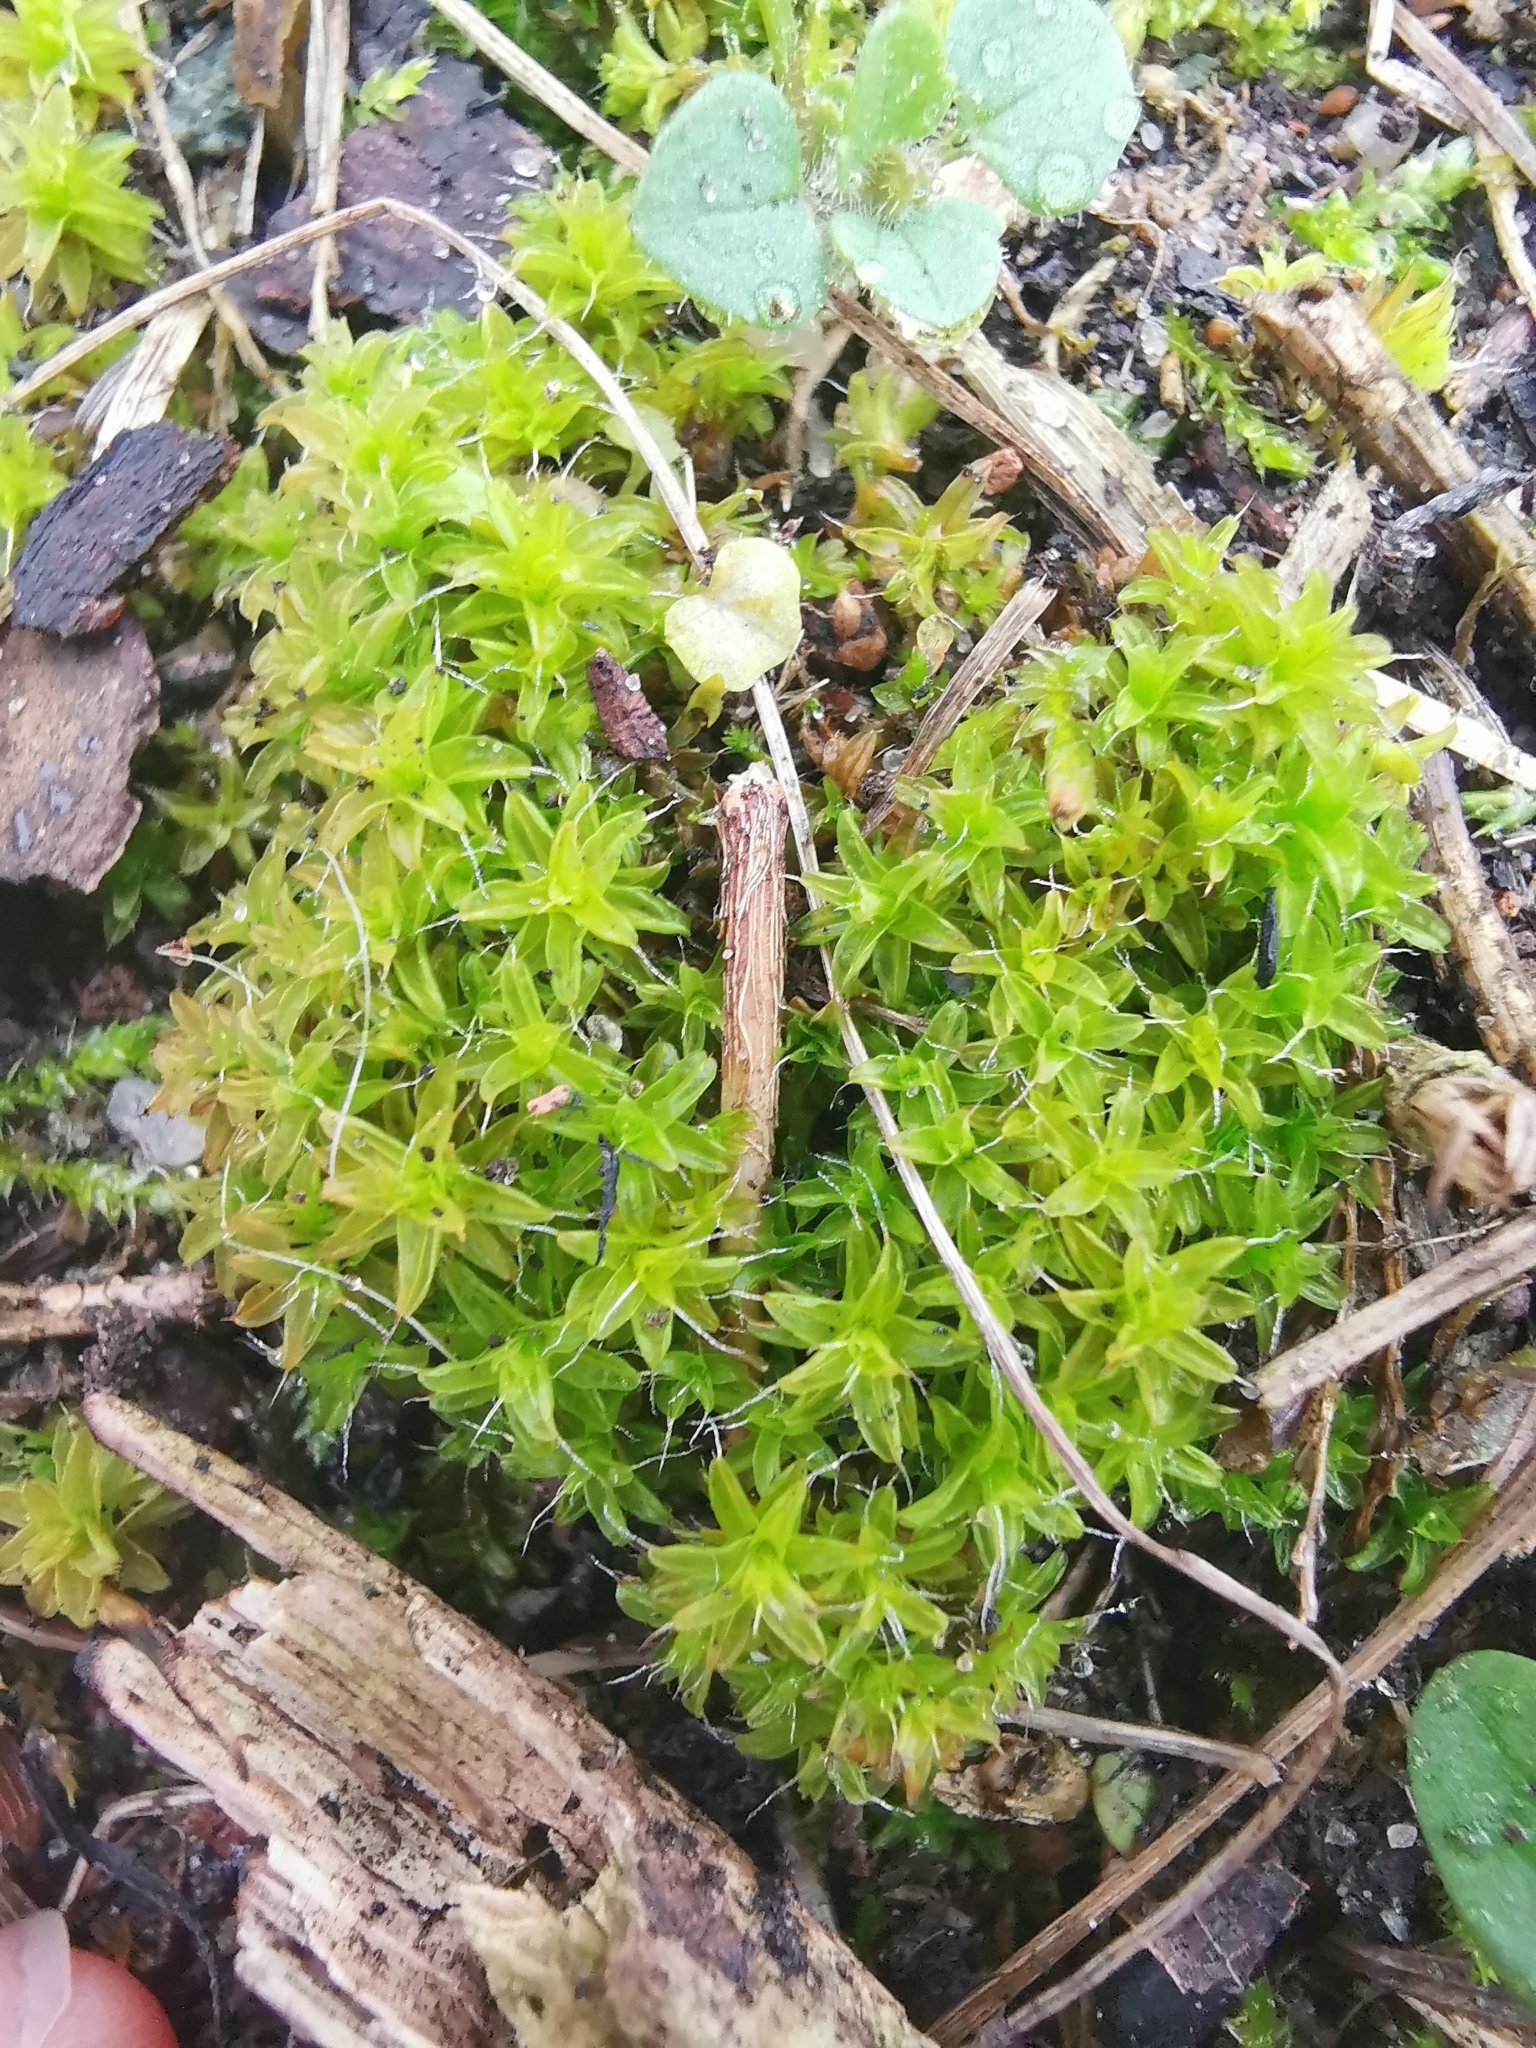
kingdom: Plantae
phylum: Bryophyta
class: Bryopsida
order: Pottiales
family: Pottiaceae
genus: Syntrichia
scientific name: Syntrichia ruralis
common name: Sidewalk screw moss
